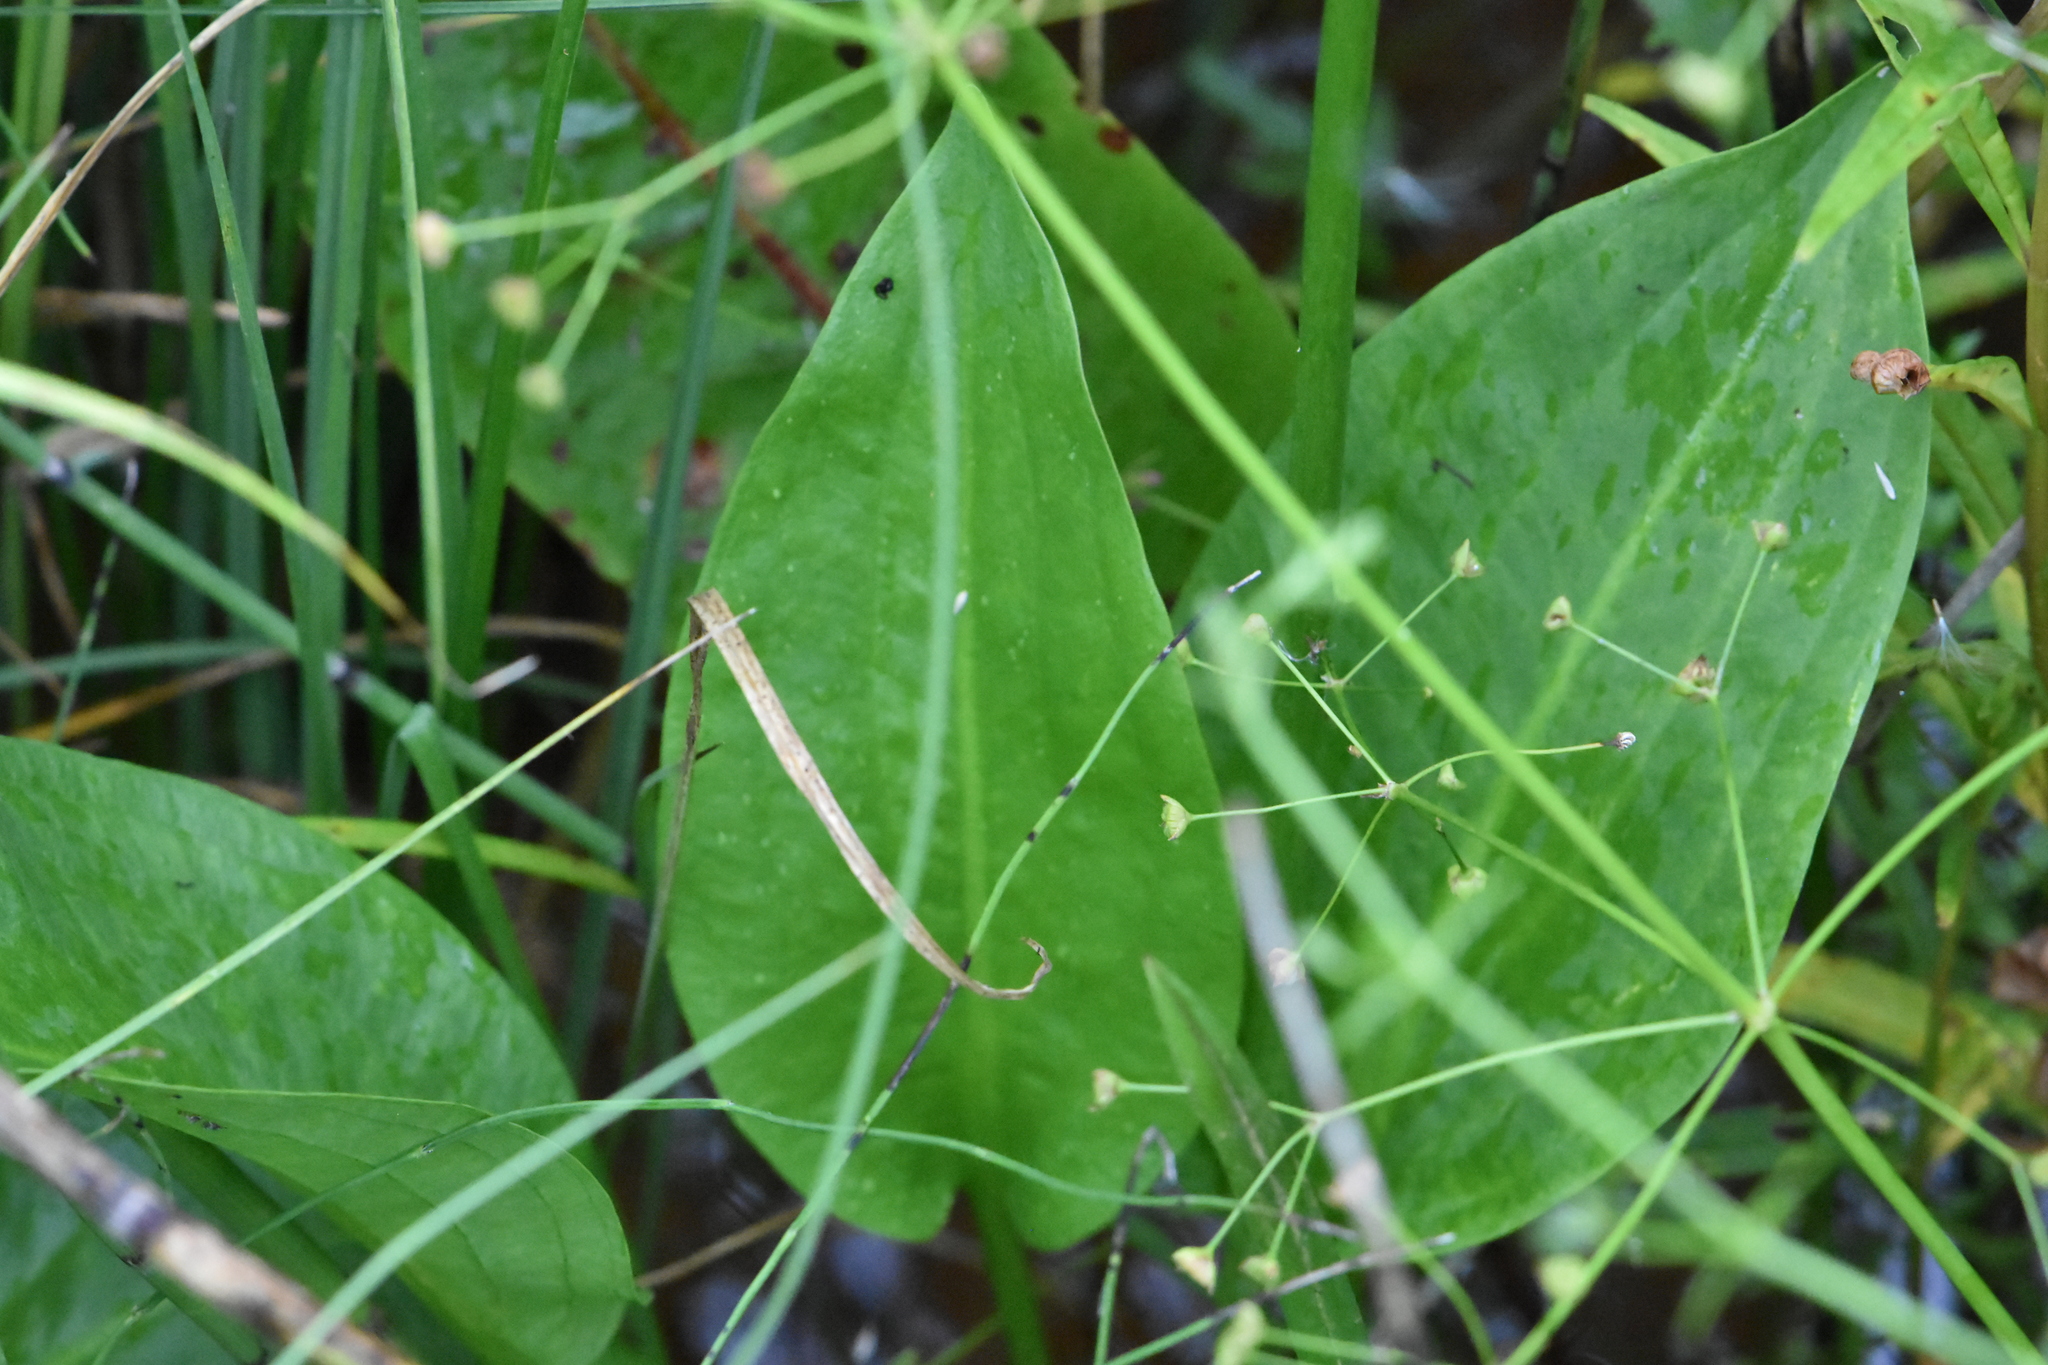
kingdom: Plantae
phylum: Tracheophyta
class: Liliopsida
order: Alismatales
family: Alismataceae
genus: Alisma
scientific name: Alisma plantago-aquatica
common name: Water-plantain
